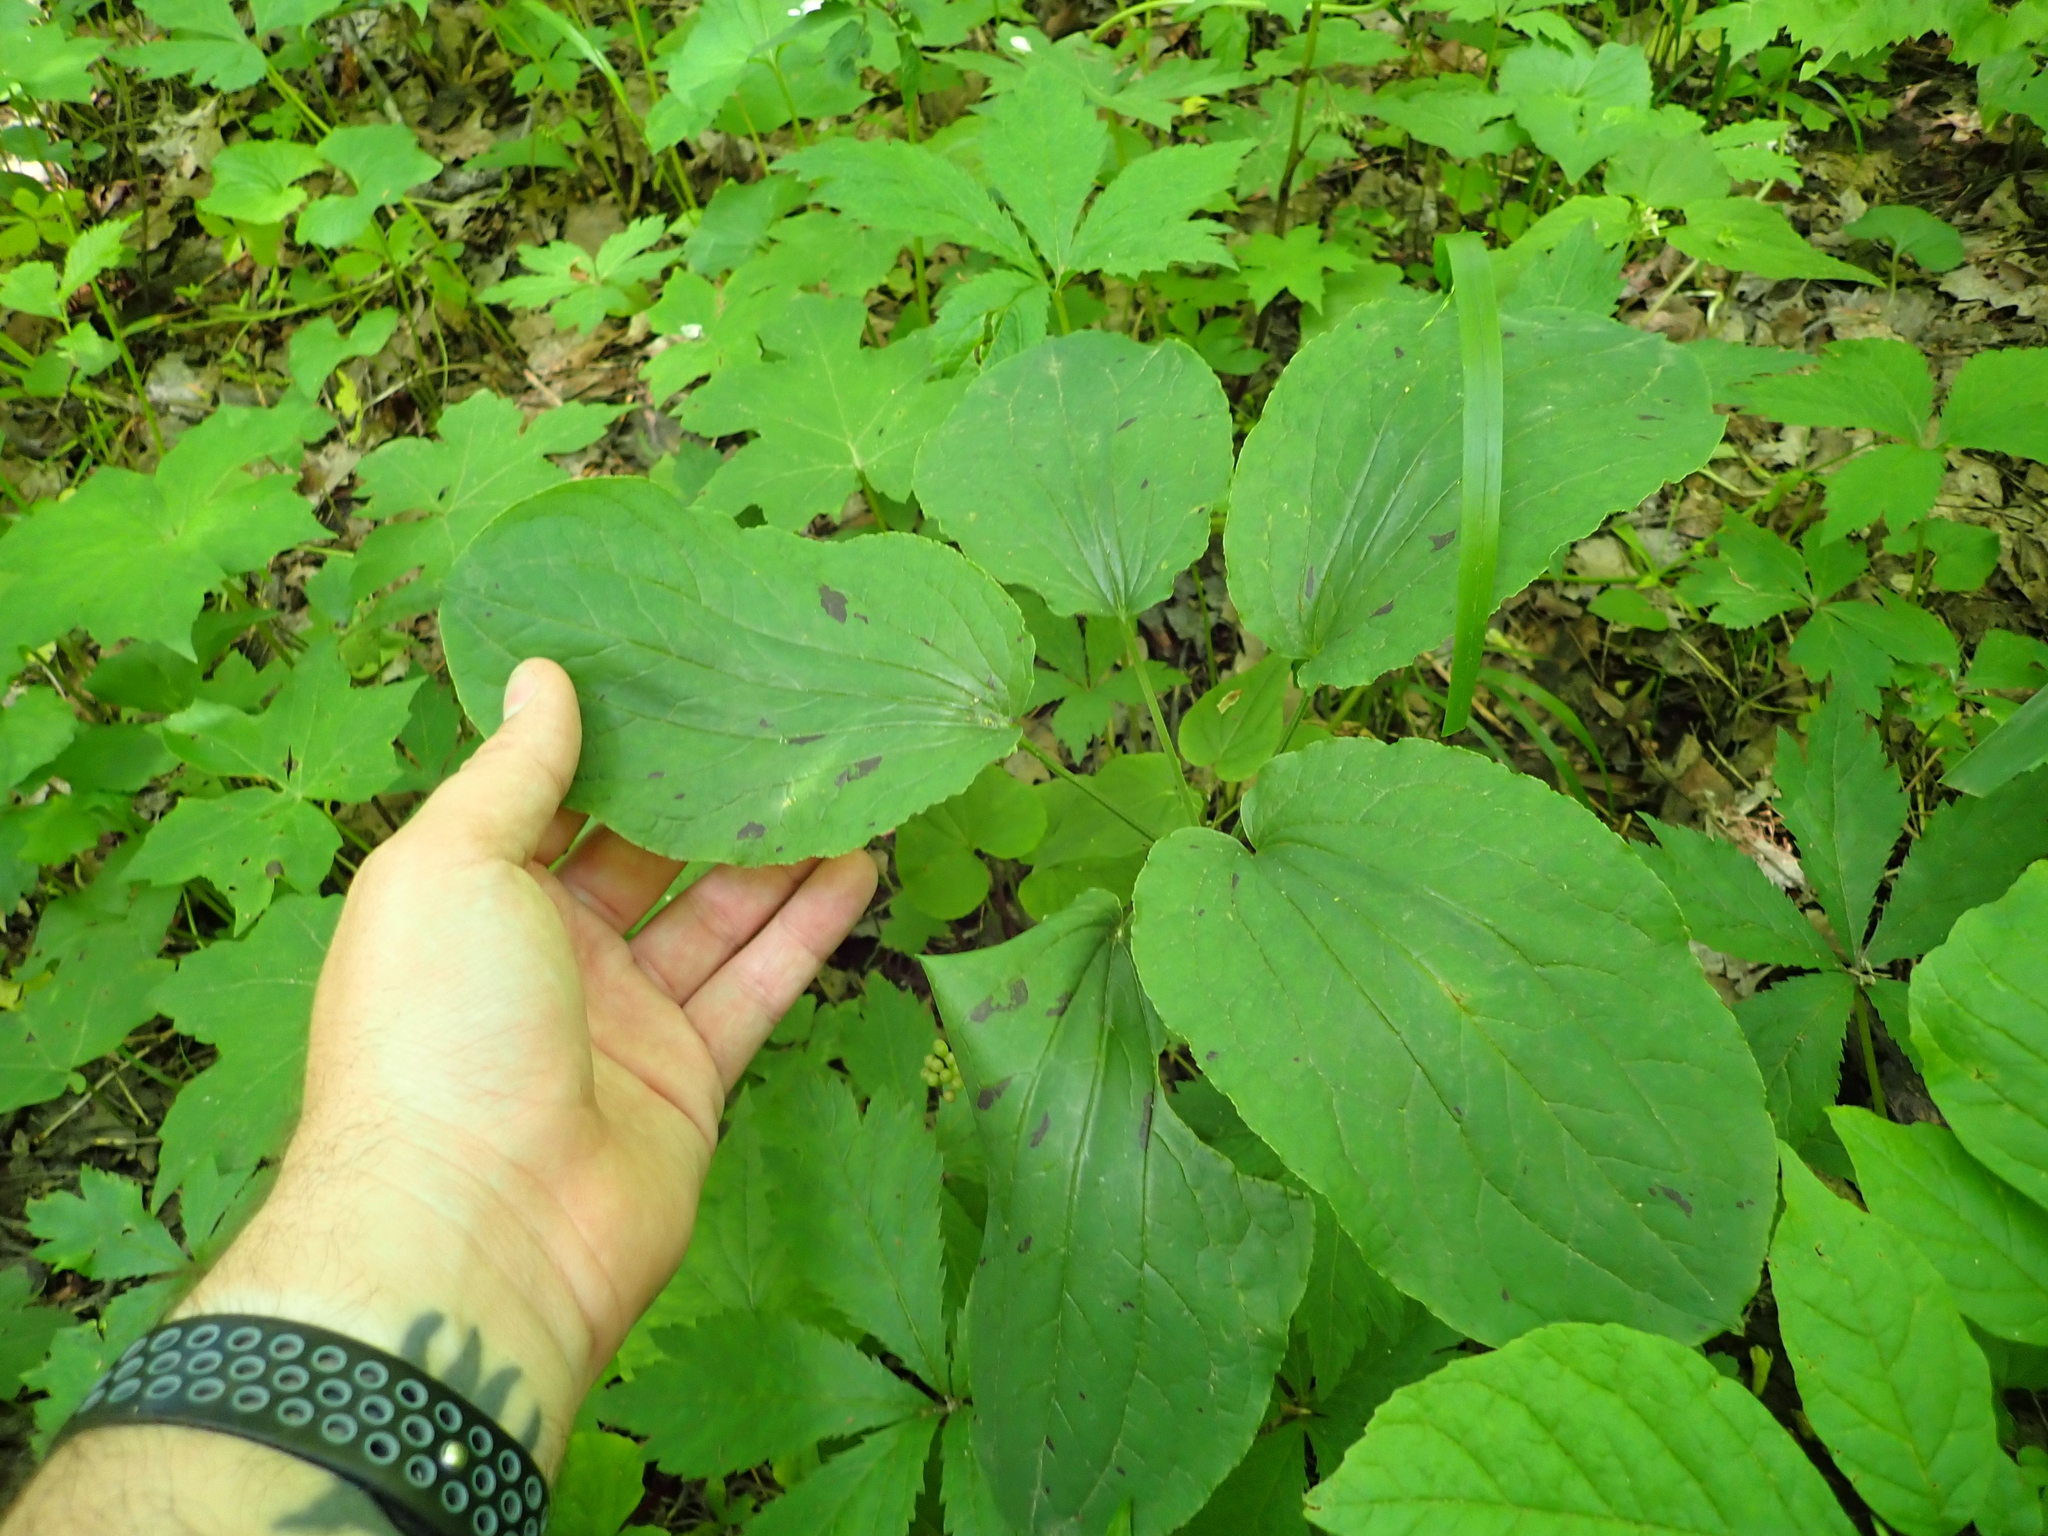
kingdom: Plantae
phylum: Tracheophyta
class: Liliopsida
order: Liliales
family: Smilacaceae
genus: Smilax
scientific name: Smilax ecirrhata
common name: Upright carrionflower
